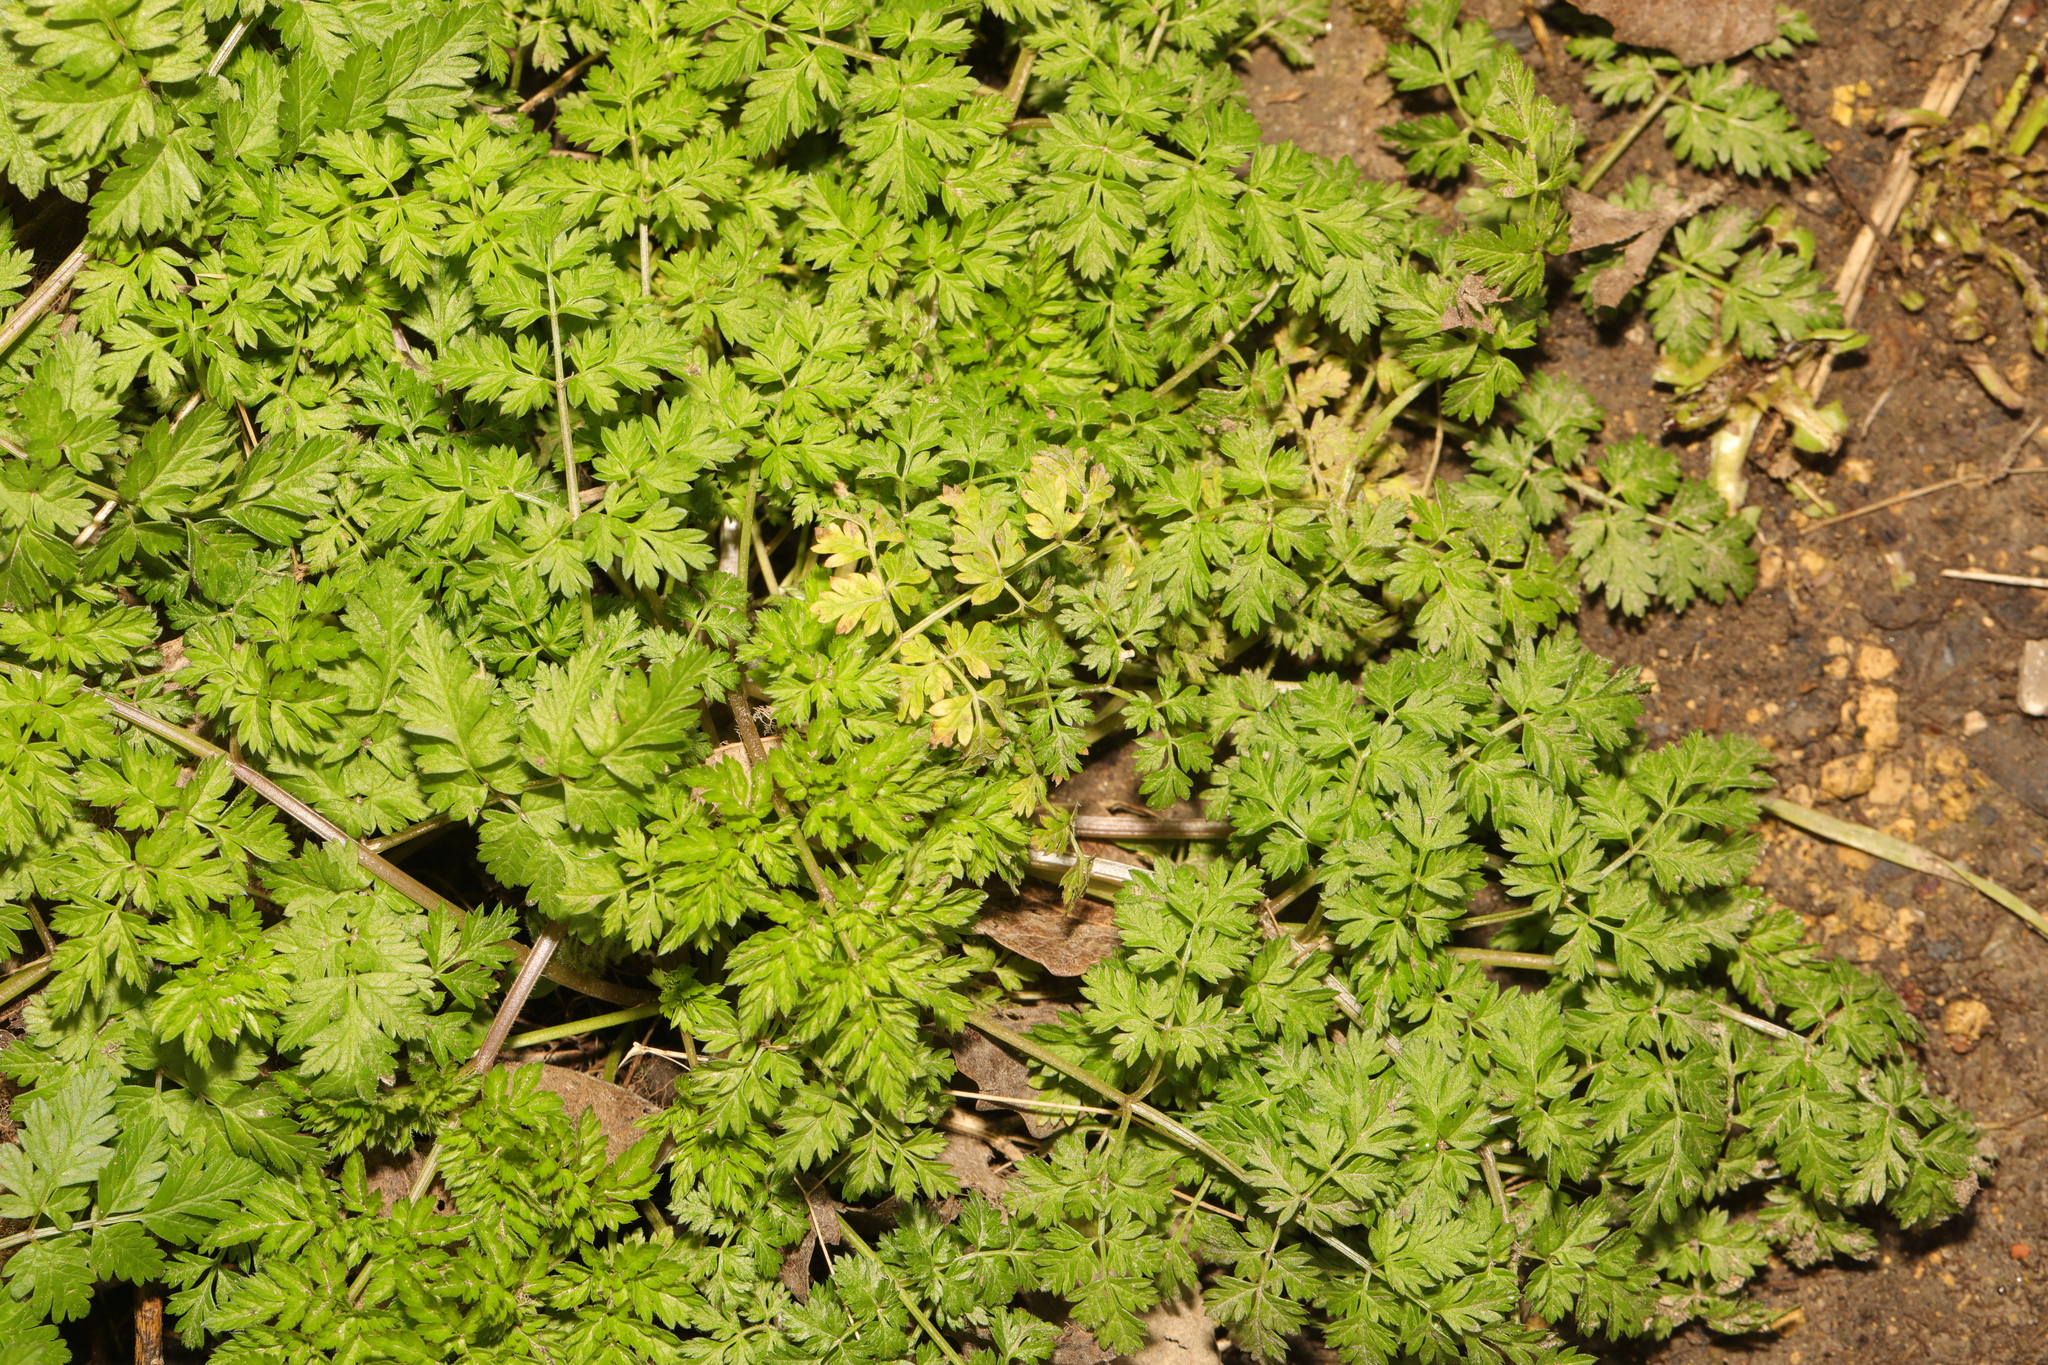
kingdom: Plantae
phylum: Tracheophyta
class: Magnoliopsida
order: Apiales
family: Apiaceae
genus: Anthriscus
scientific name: Anthriscus sylvestris
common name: Cow parsley
